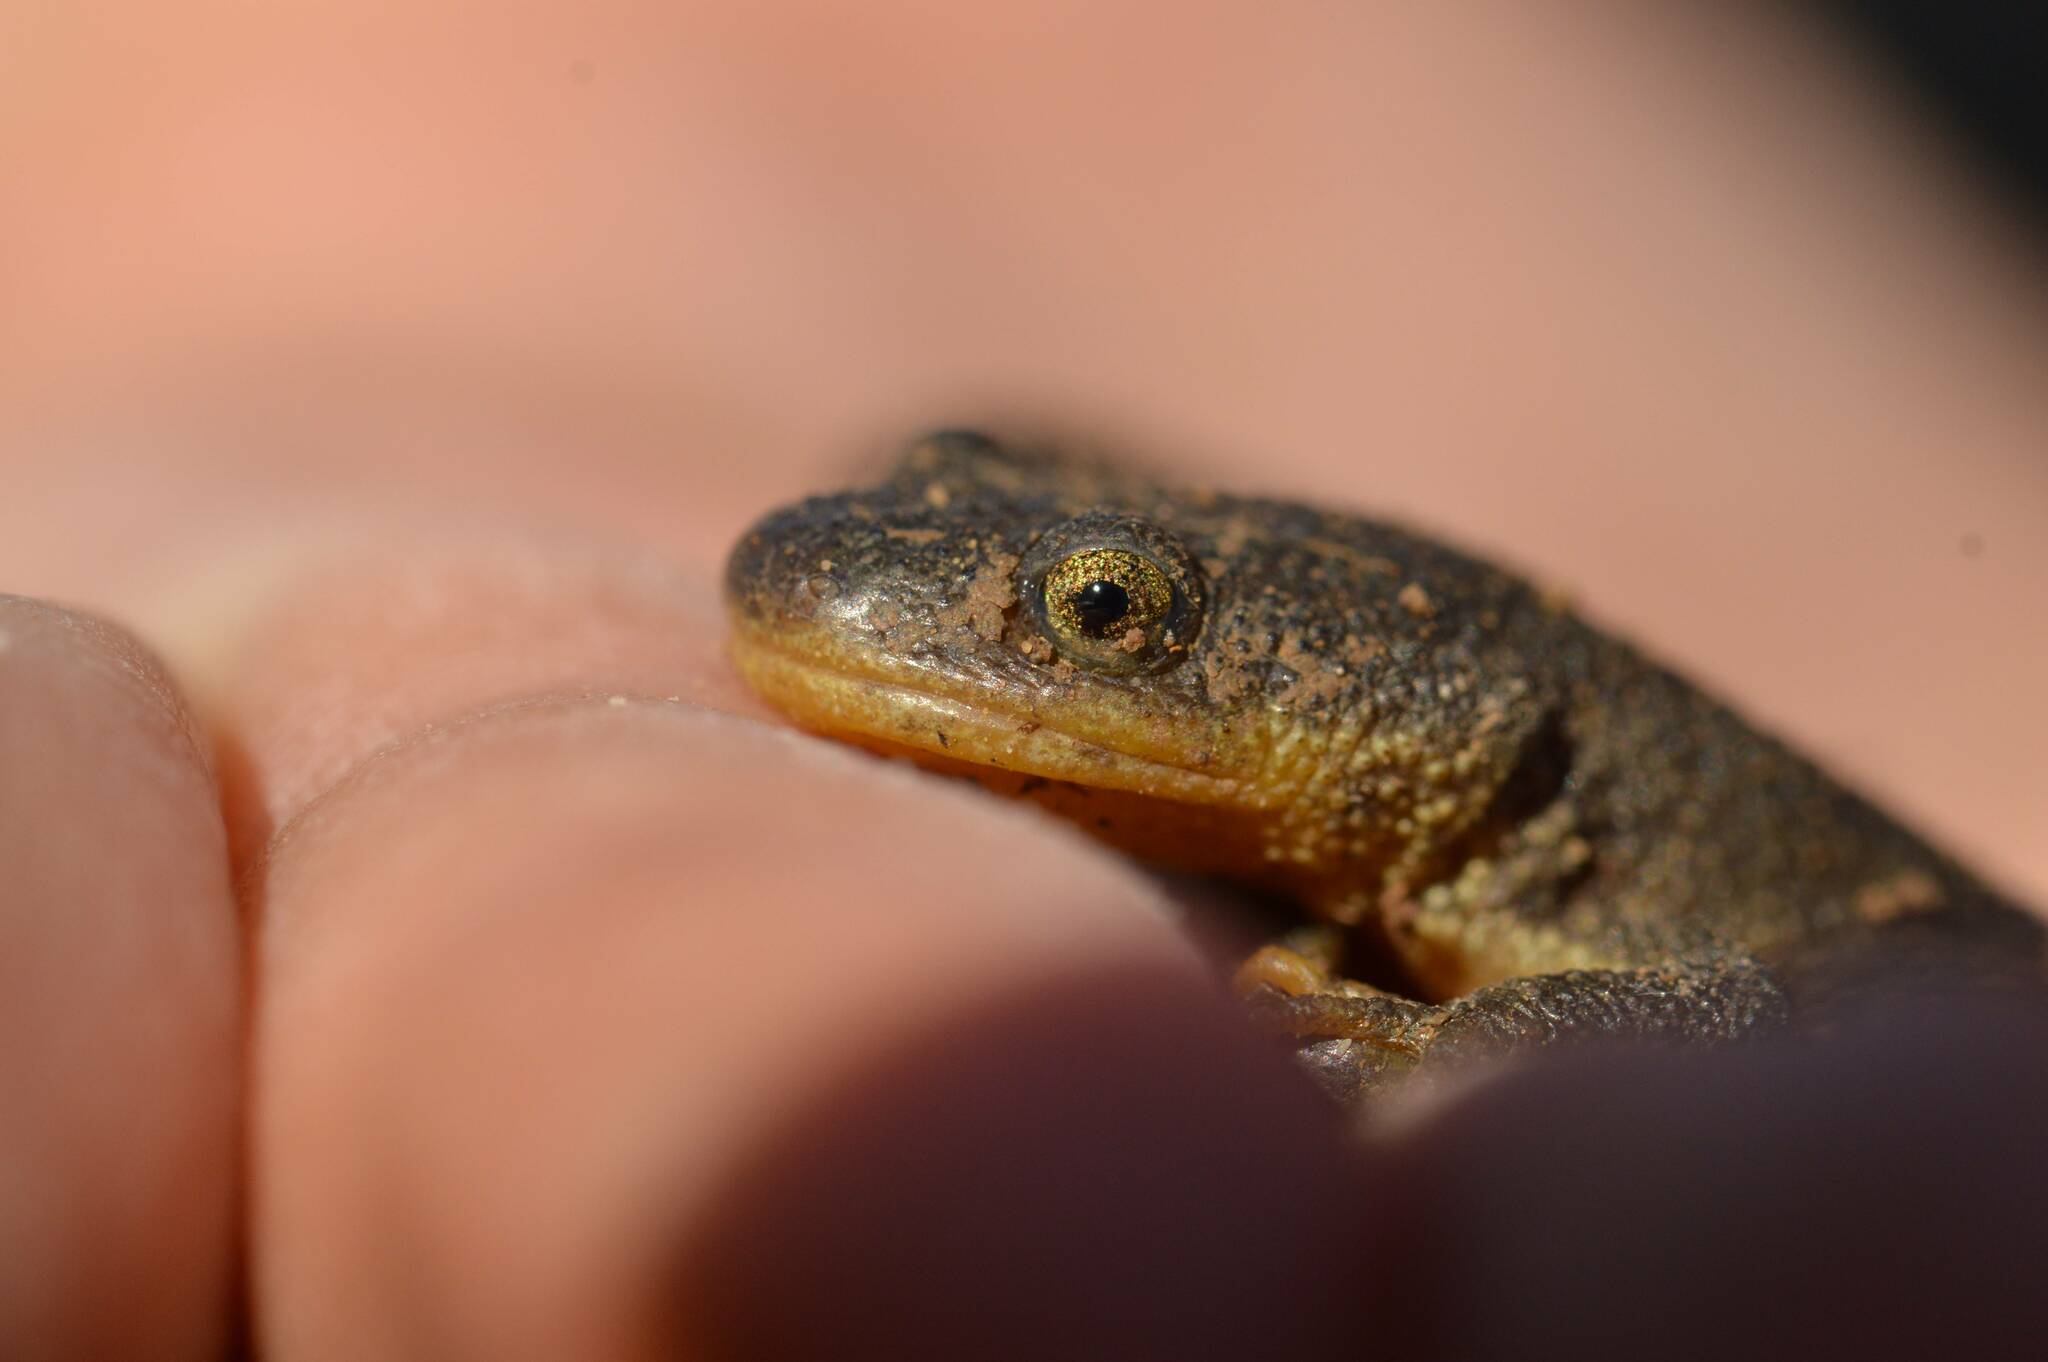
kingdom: Animalia
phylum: Chordata
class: Amphibia
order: Caudata
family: Salamandridae
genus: Pleurodeles
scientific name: Pleurodeles nebulosus
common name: Algerian ribbed newt
